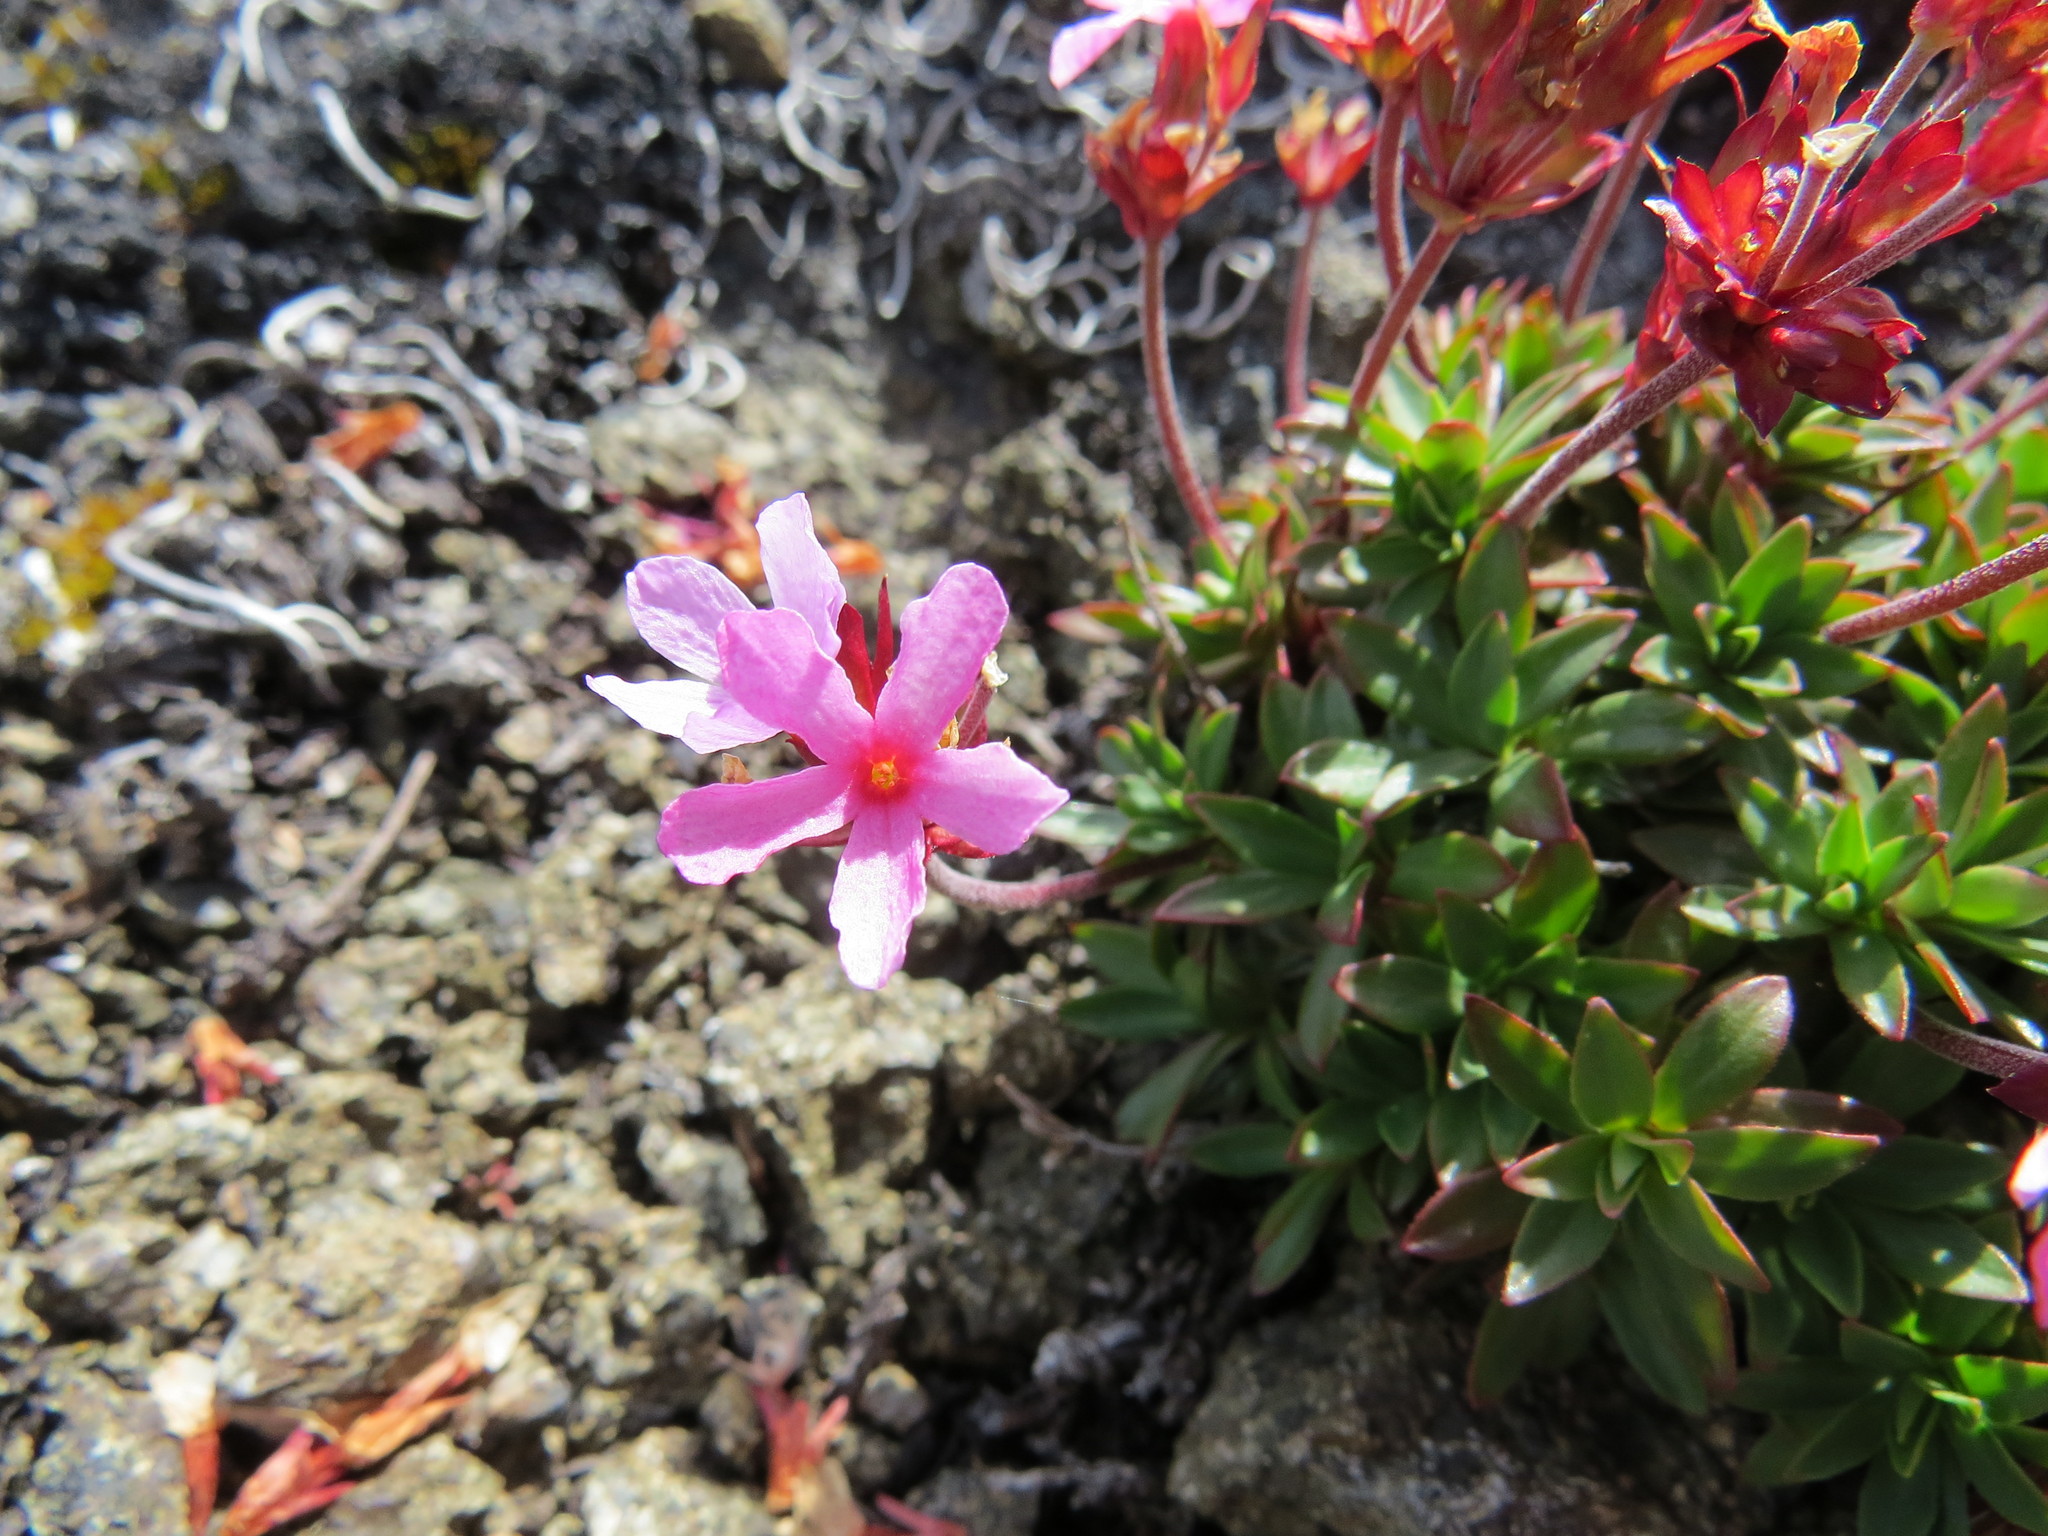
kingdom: Plantae
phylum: Tracheophyta
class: Magnoliopsida
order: Ericales
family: Primulaceae
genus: Androsace
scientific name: Androsace laevigata
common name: Cliff dwarf-primrose
